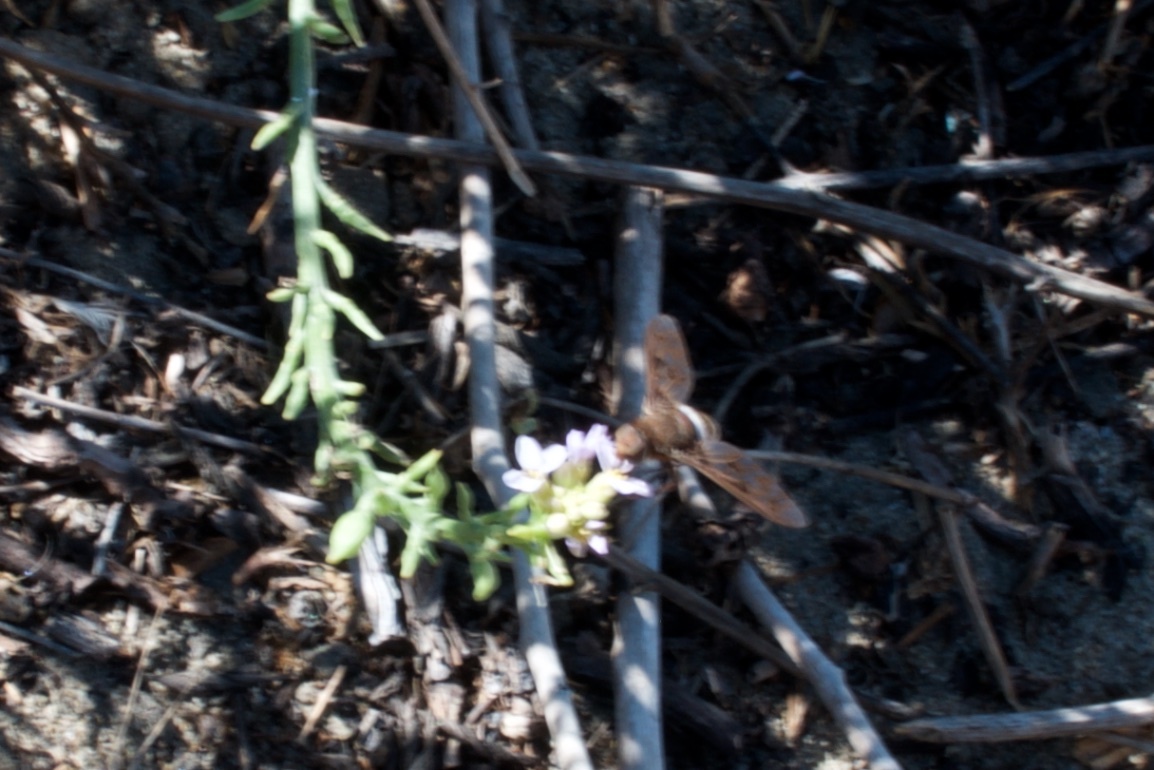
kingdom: Animalia
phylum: Arthropoda
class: Insecta
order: Diptera
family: Bombyliidae
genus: Nyia
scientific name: Nyia gazophylax
